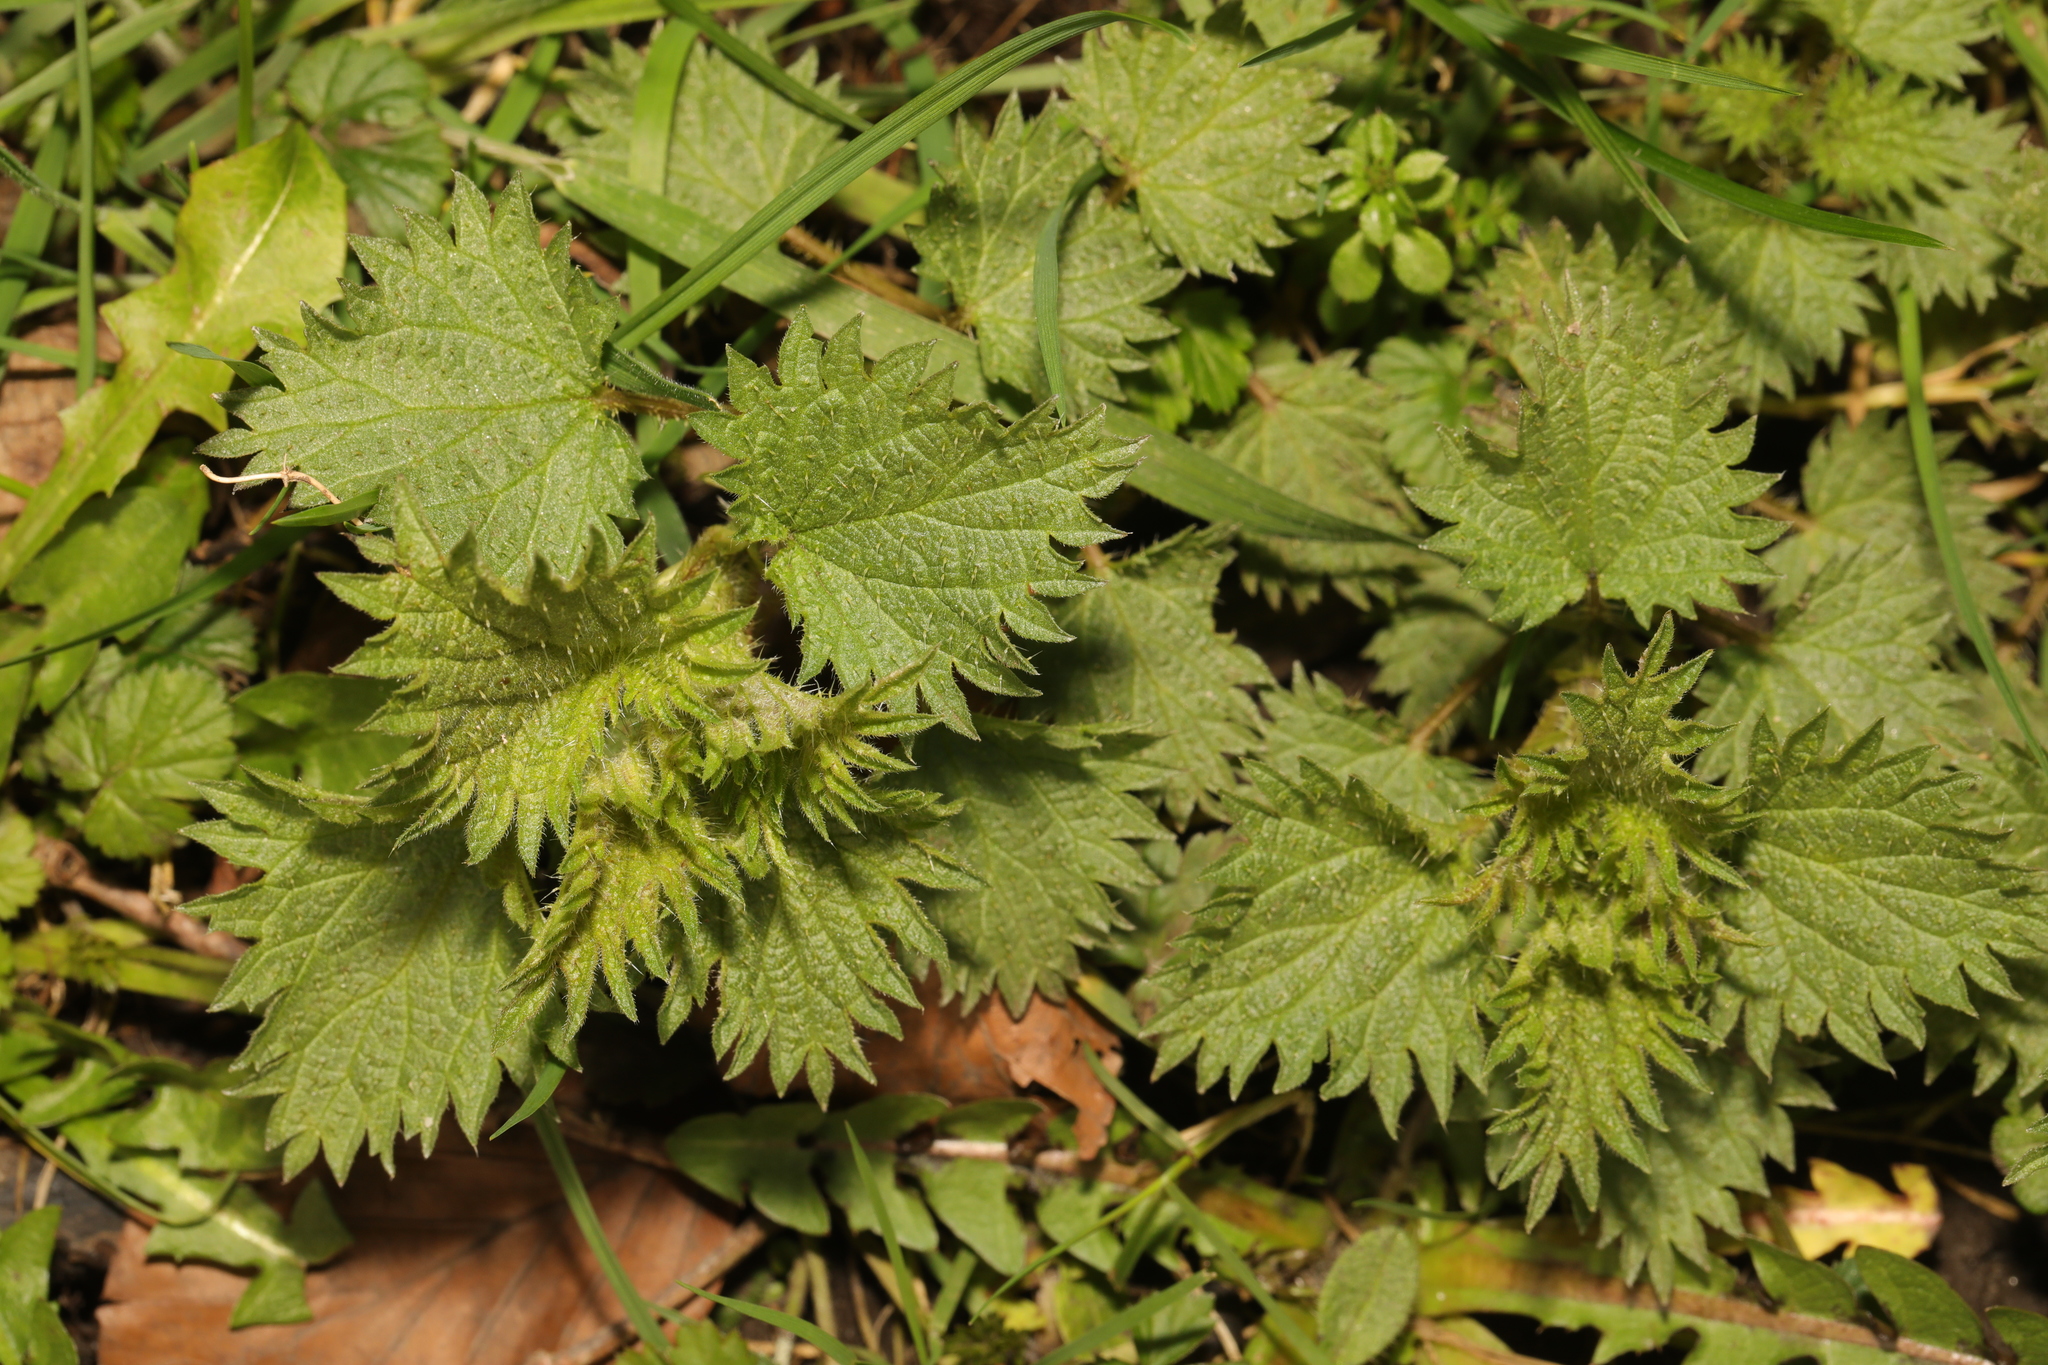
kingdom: Plantae
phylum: Tracheophyta
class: Magnoliopsida
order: Rosales
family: Urticaceae
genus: Urtica
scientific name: Urtica dioica
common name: Common nettle
